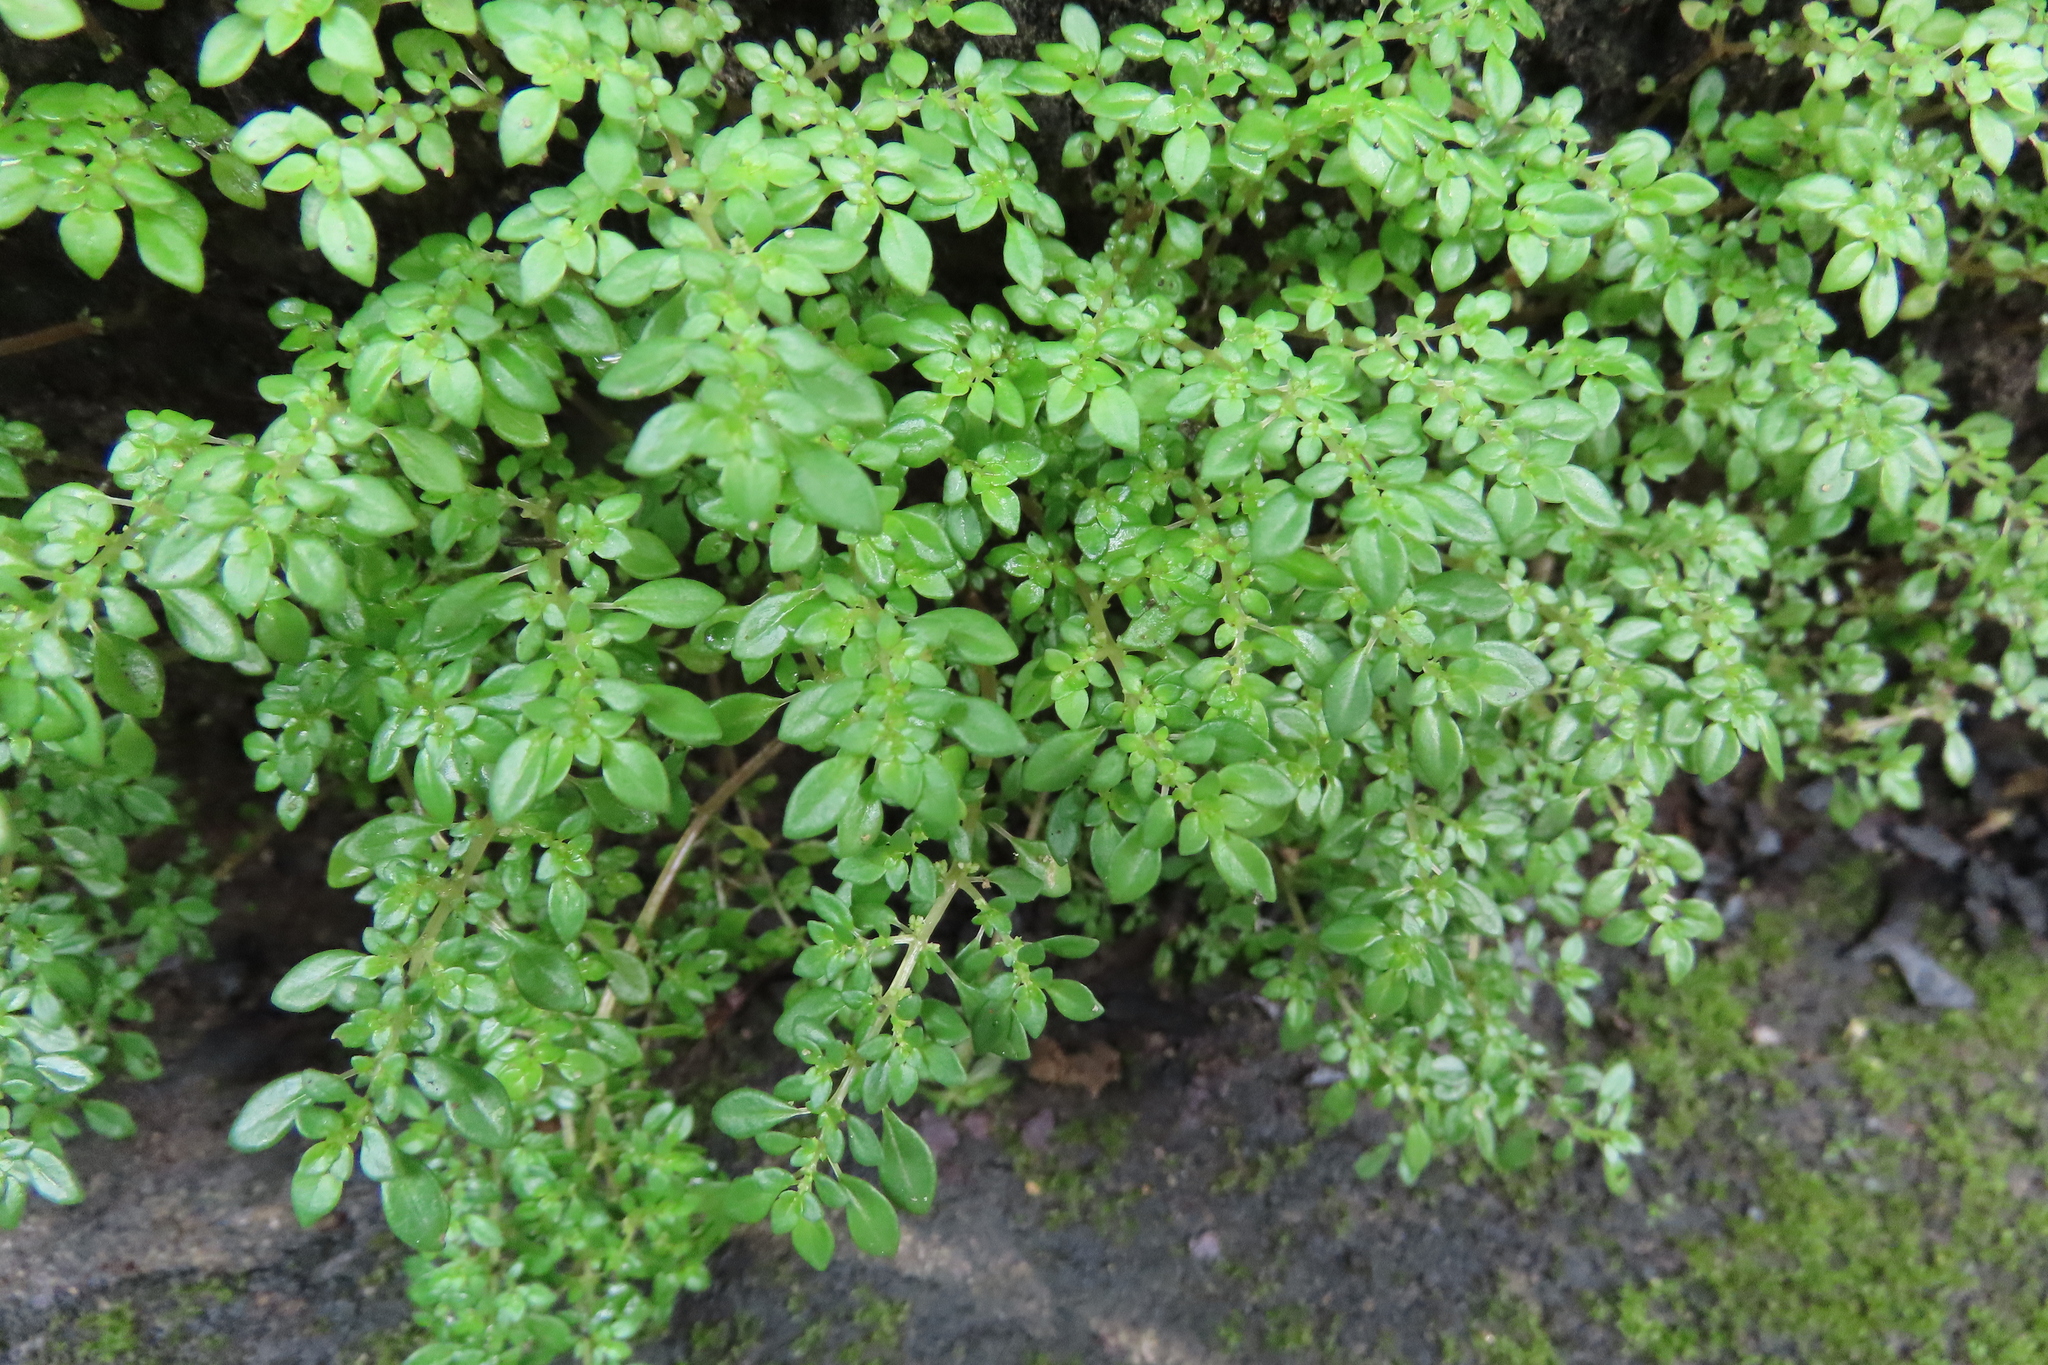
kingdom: Plantae
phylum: Tracheophyta
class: Magnoliopsida
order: Rosales
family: Urticaceae
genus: Pilea
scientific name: Pilea microphylla
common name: Artillery-plant
